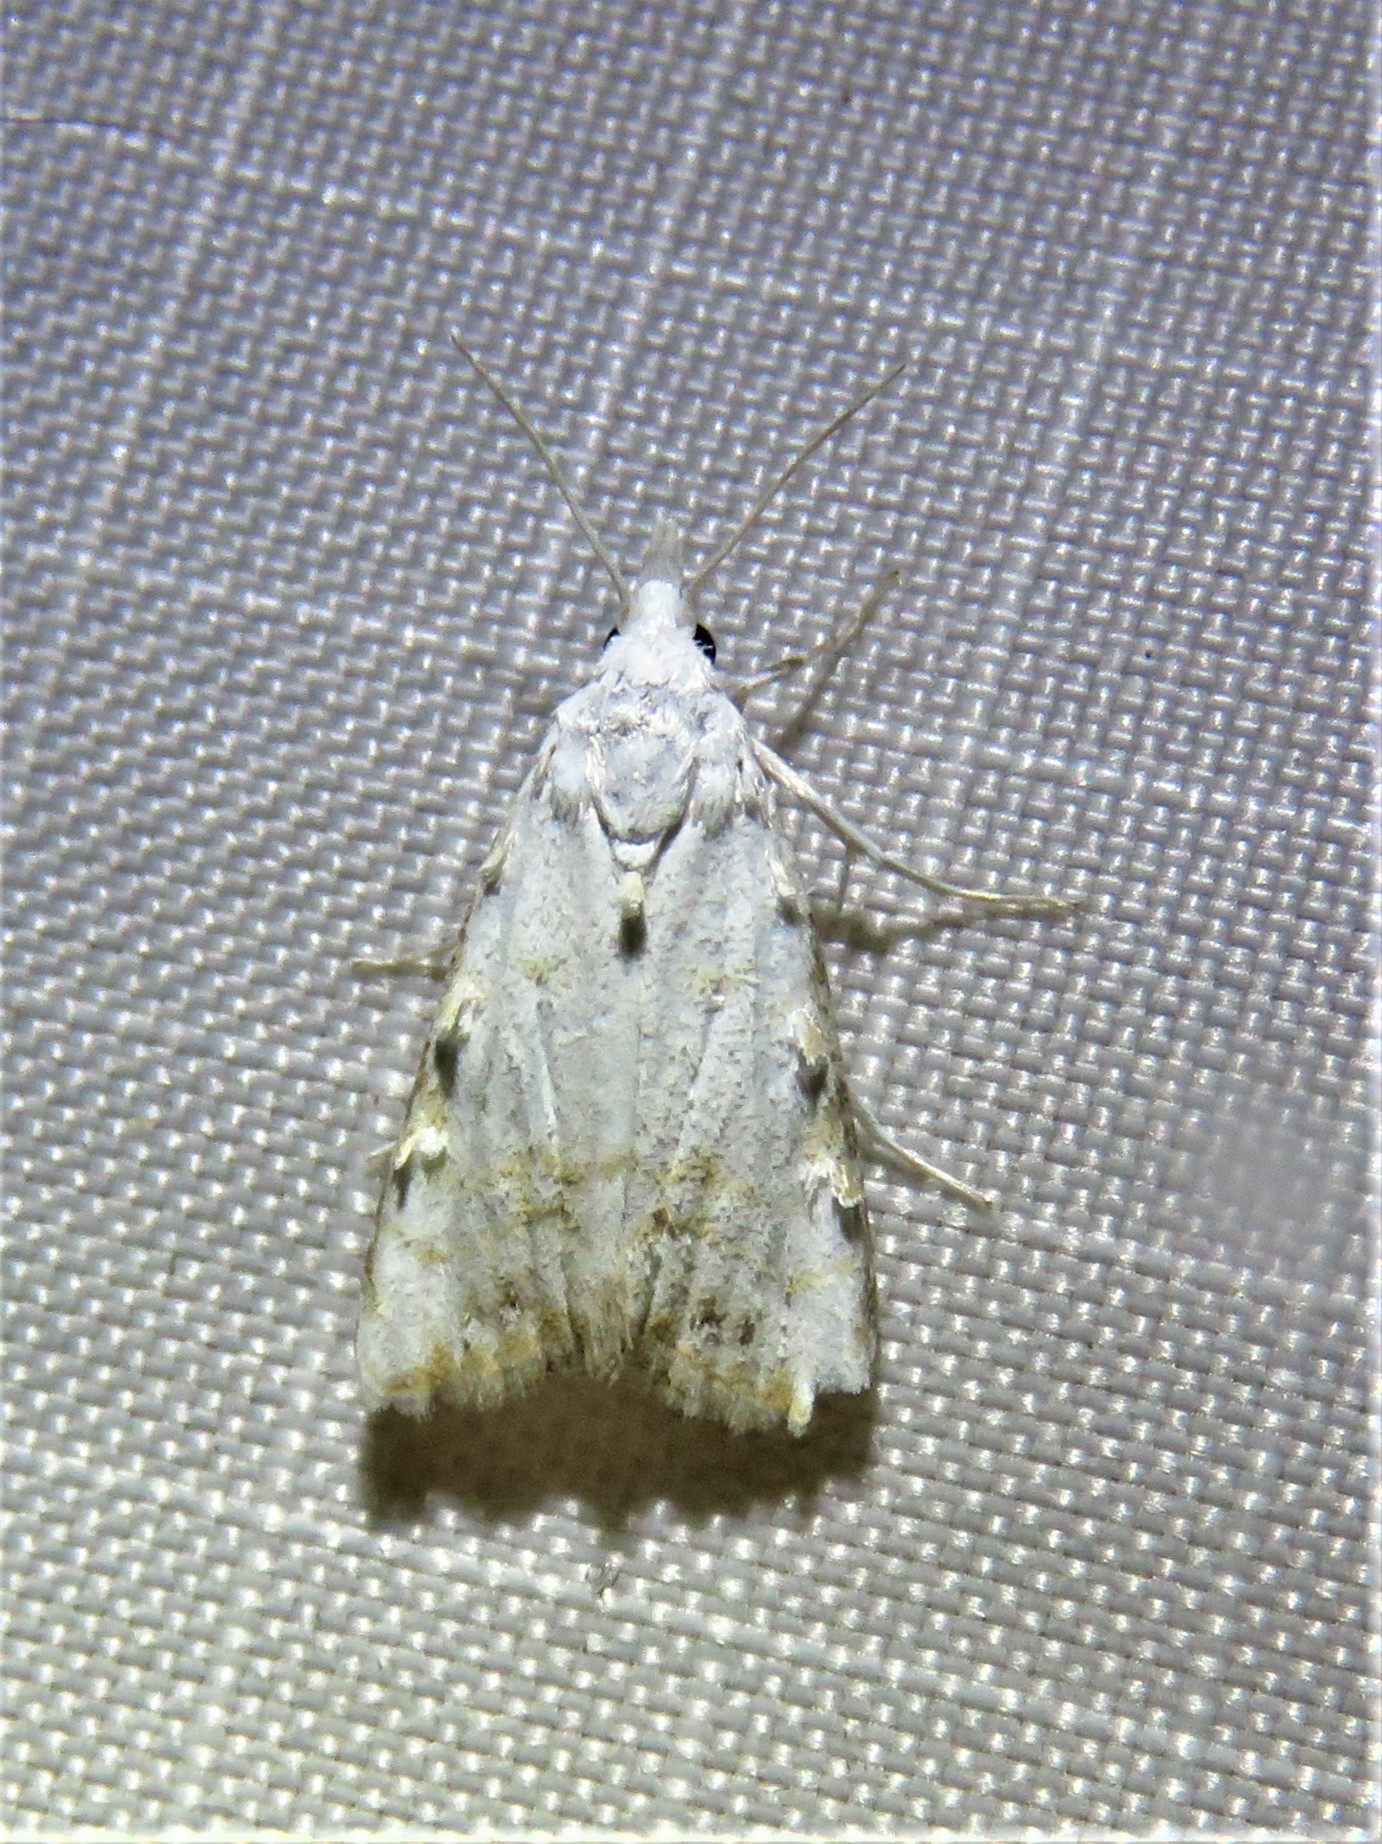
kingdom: Animalia
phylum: Arthropoda
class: Insecta
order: Lepidoptera
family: Nolidae
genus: Nola
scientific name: Nola cereella
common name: Sorghum webworm moth
